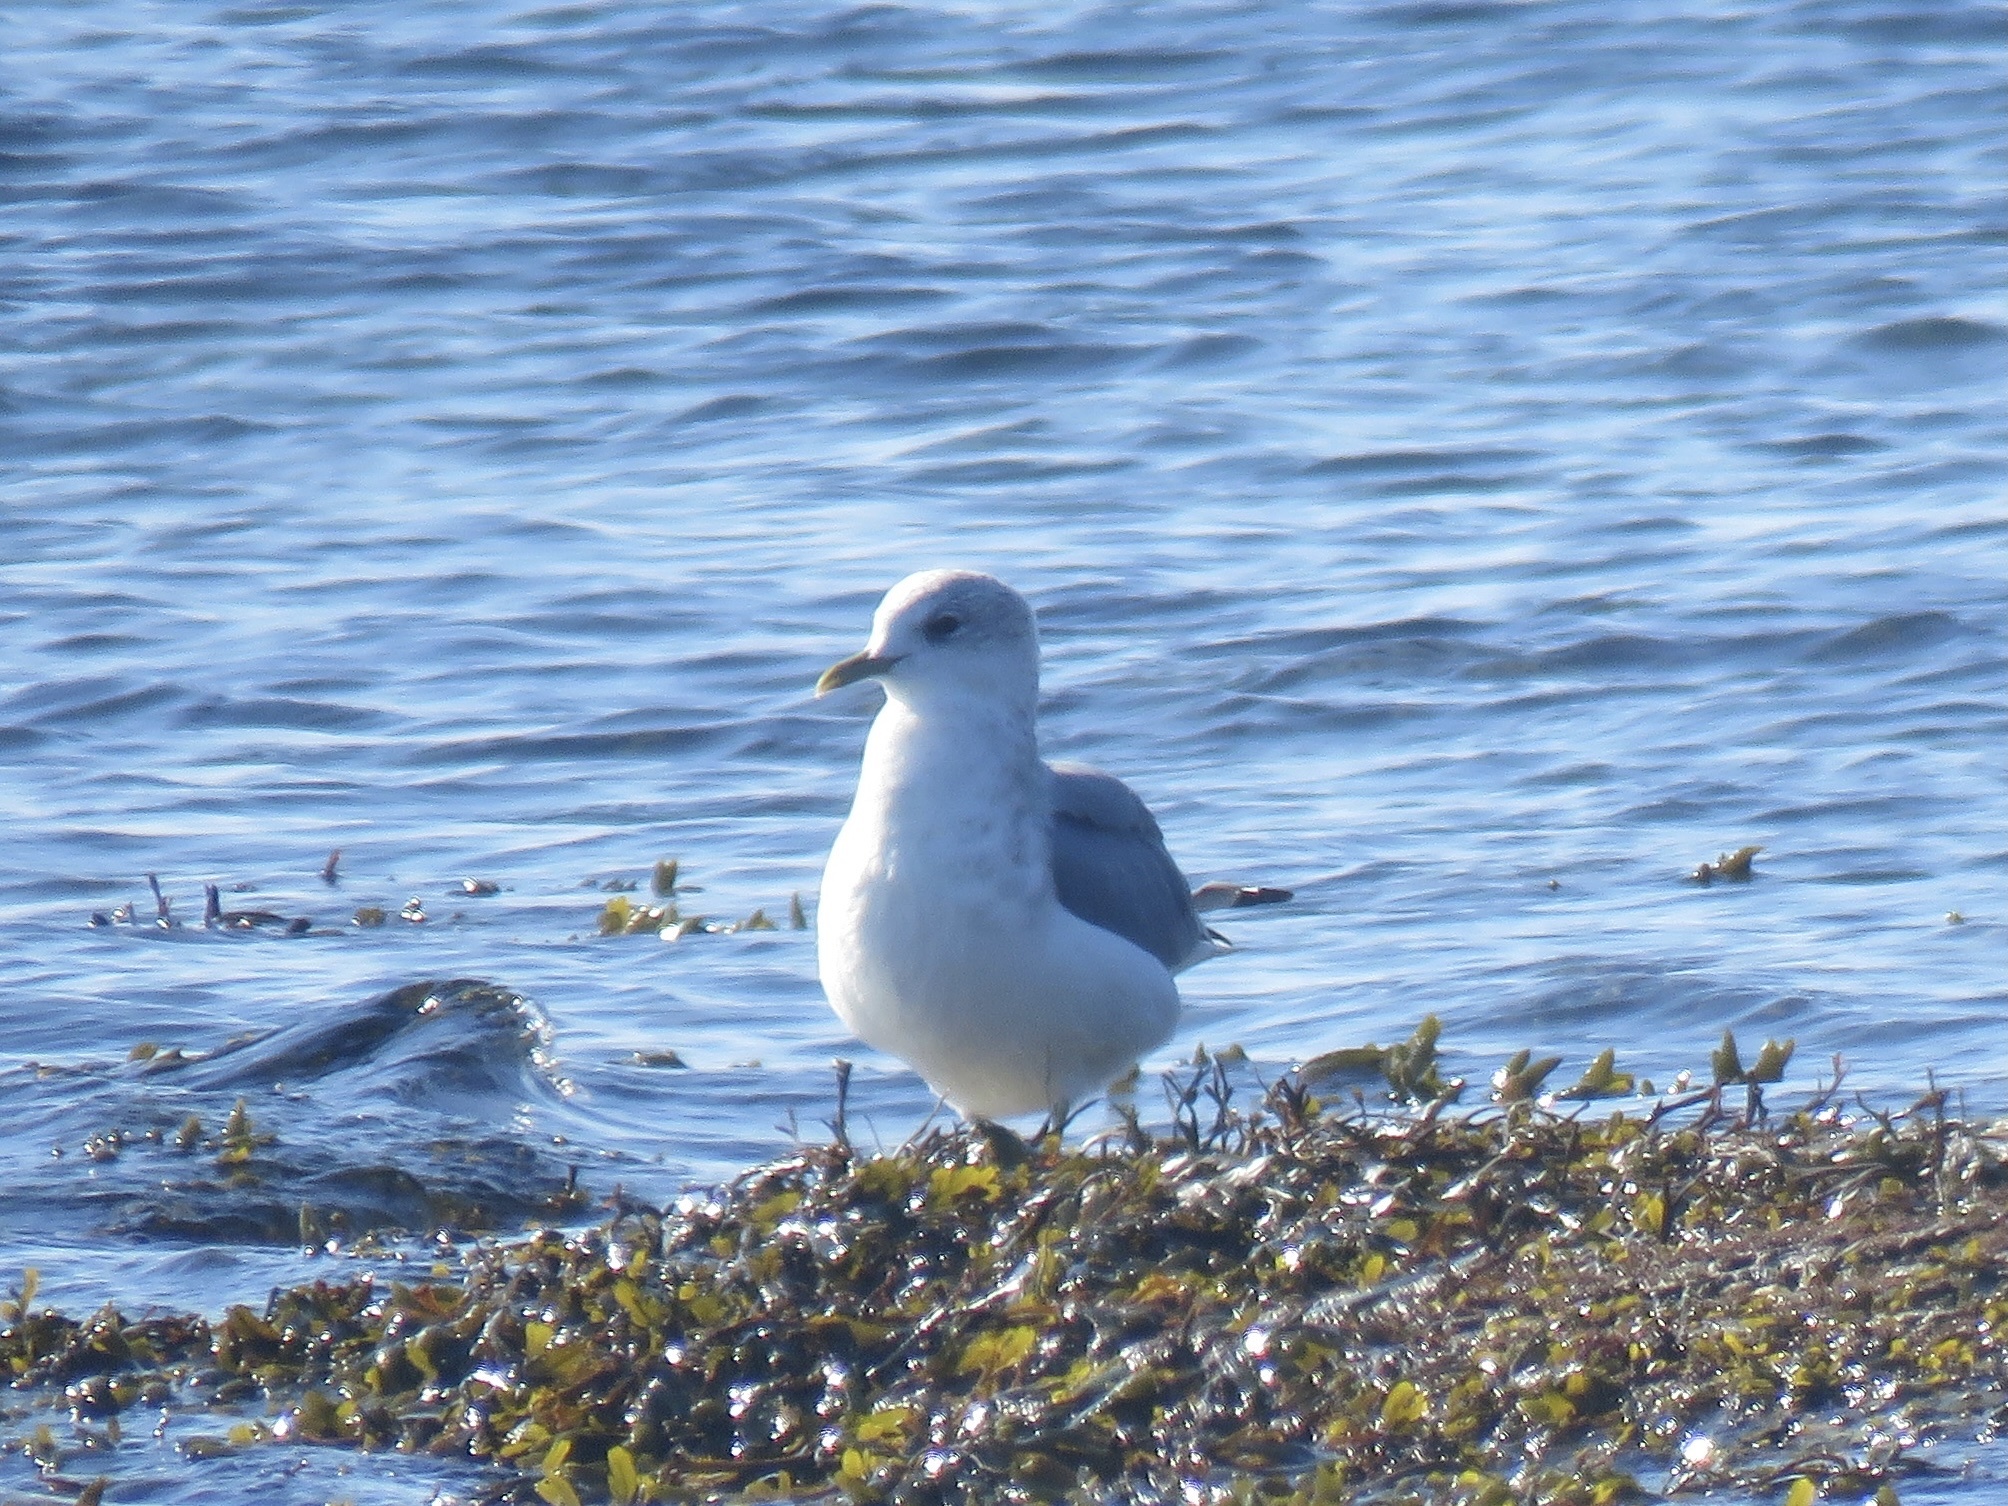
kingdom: Animalia
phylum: Chordata
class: Aves
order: Charadriiformes
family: Laridae
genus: Larus
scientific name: Larus brachyrhynchus
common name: Short-billed gull
